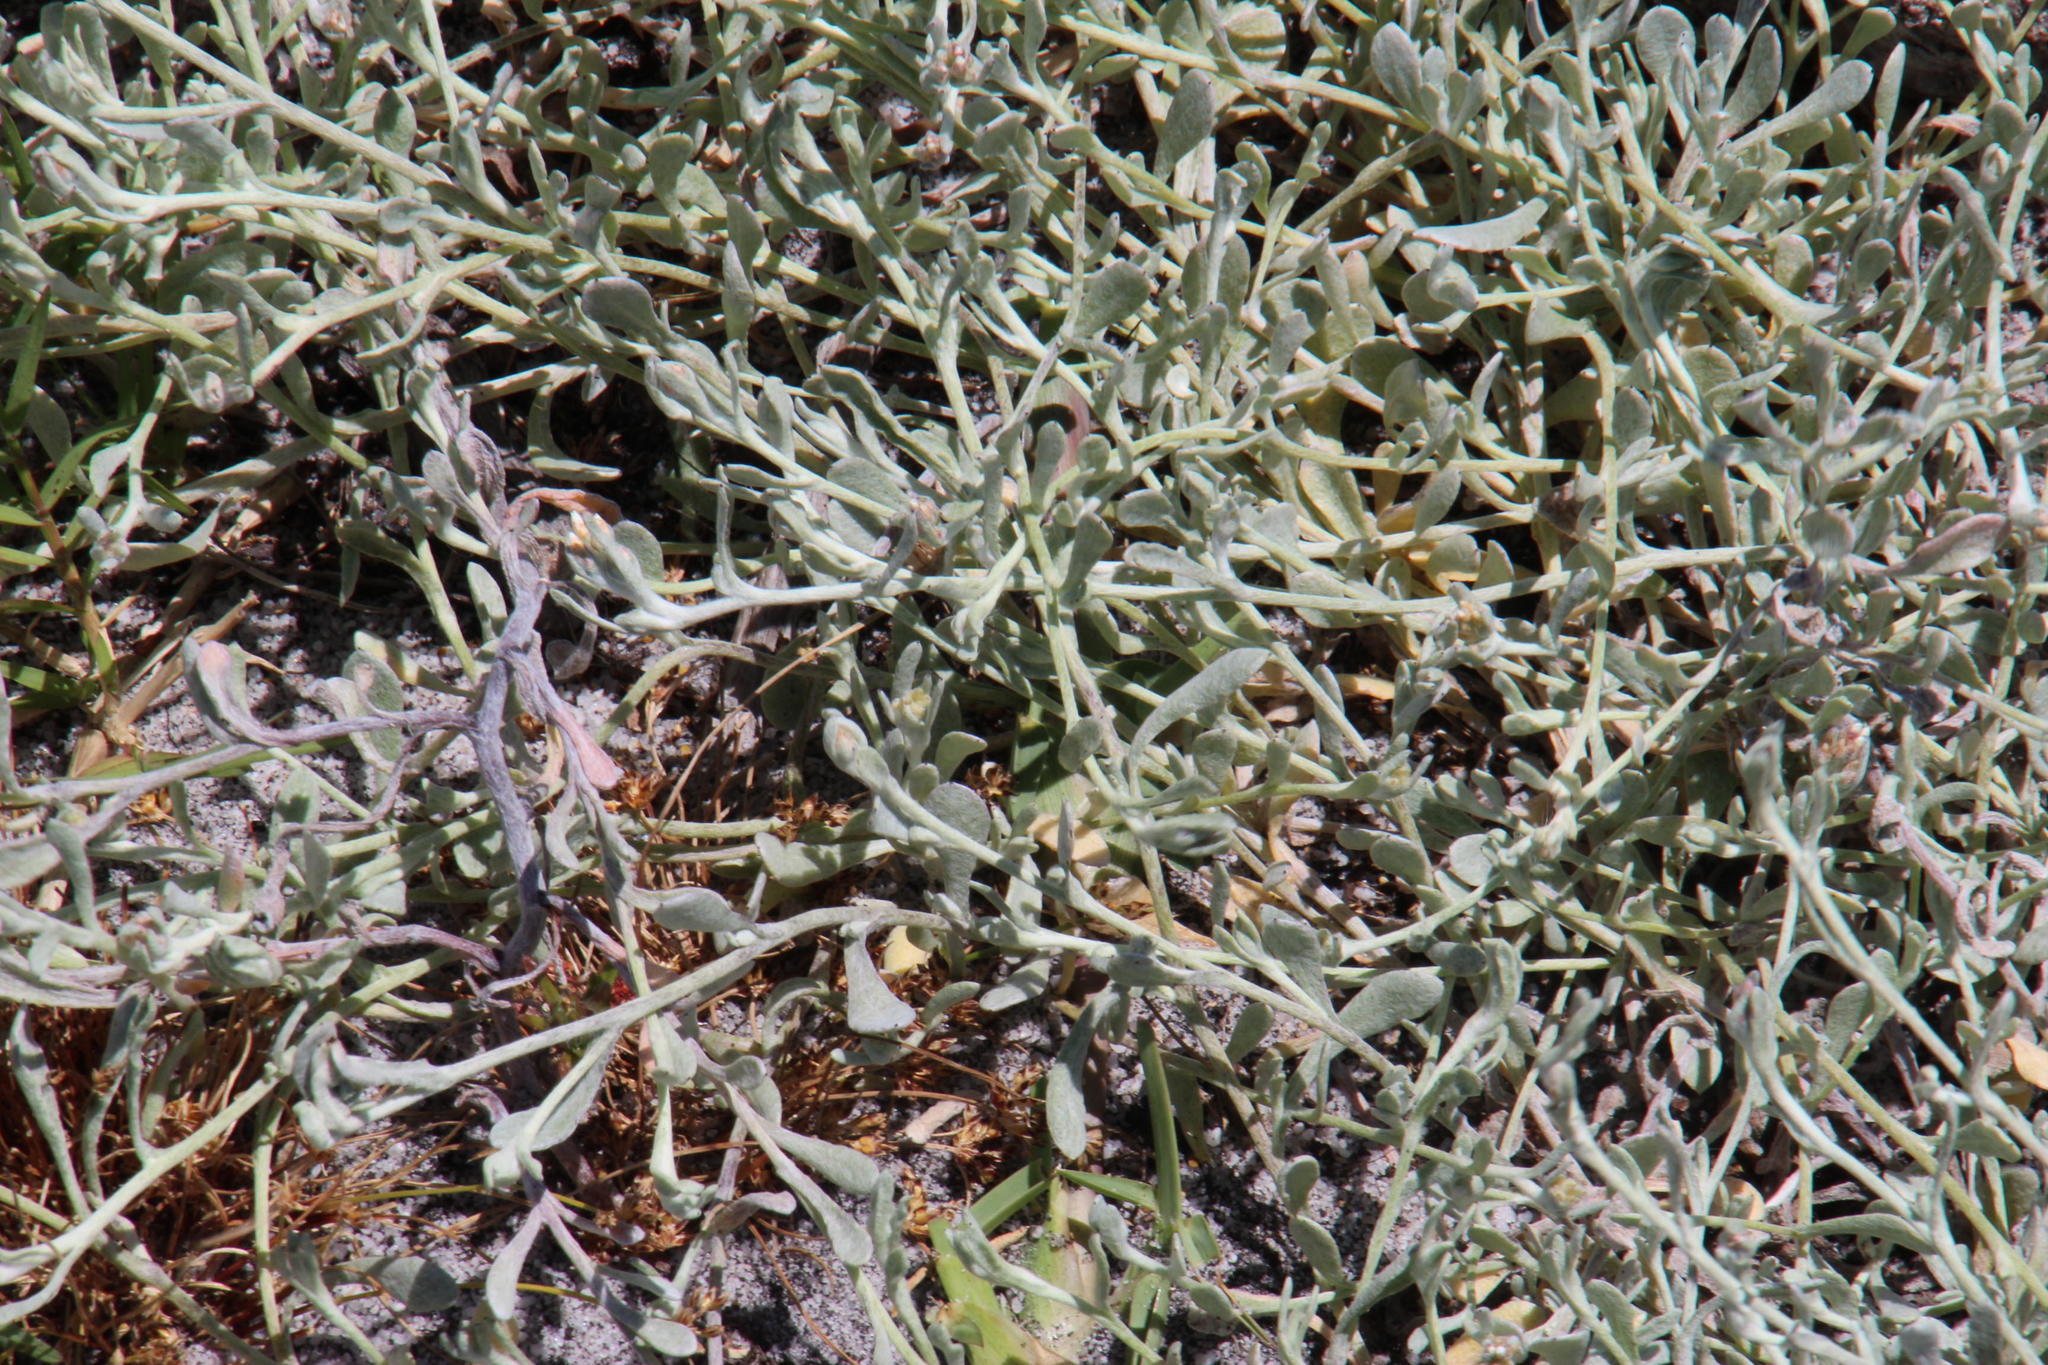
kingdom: Plantae
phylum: Tracheophyta
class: Magnoliopsida
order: Asterales
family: Asteraceae
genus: Helichrysum
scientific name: Helichrysum indicum
